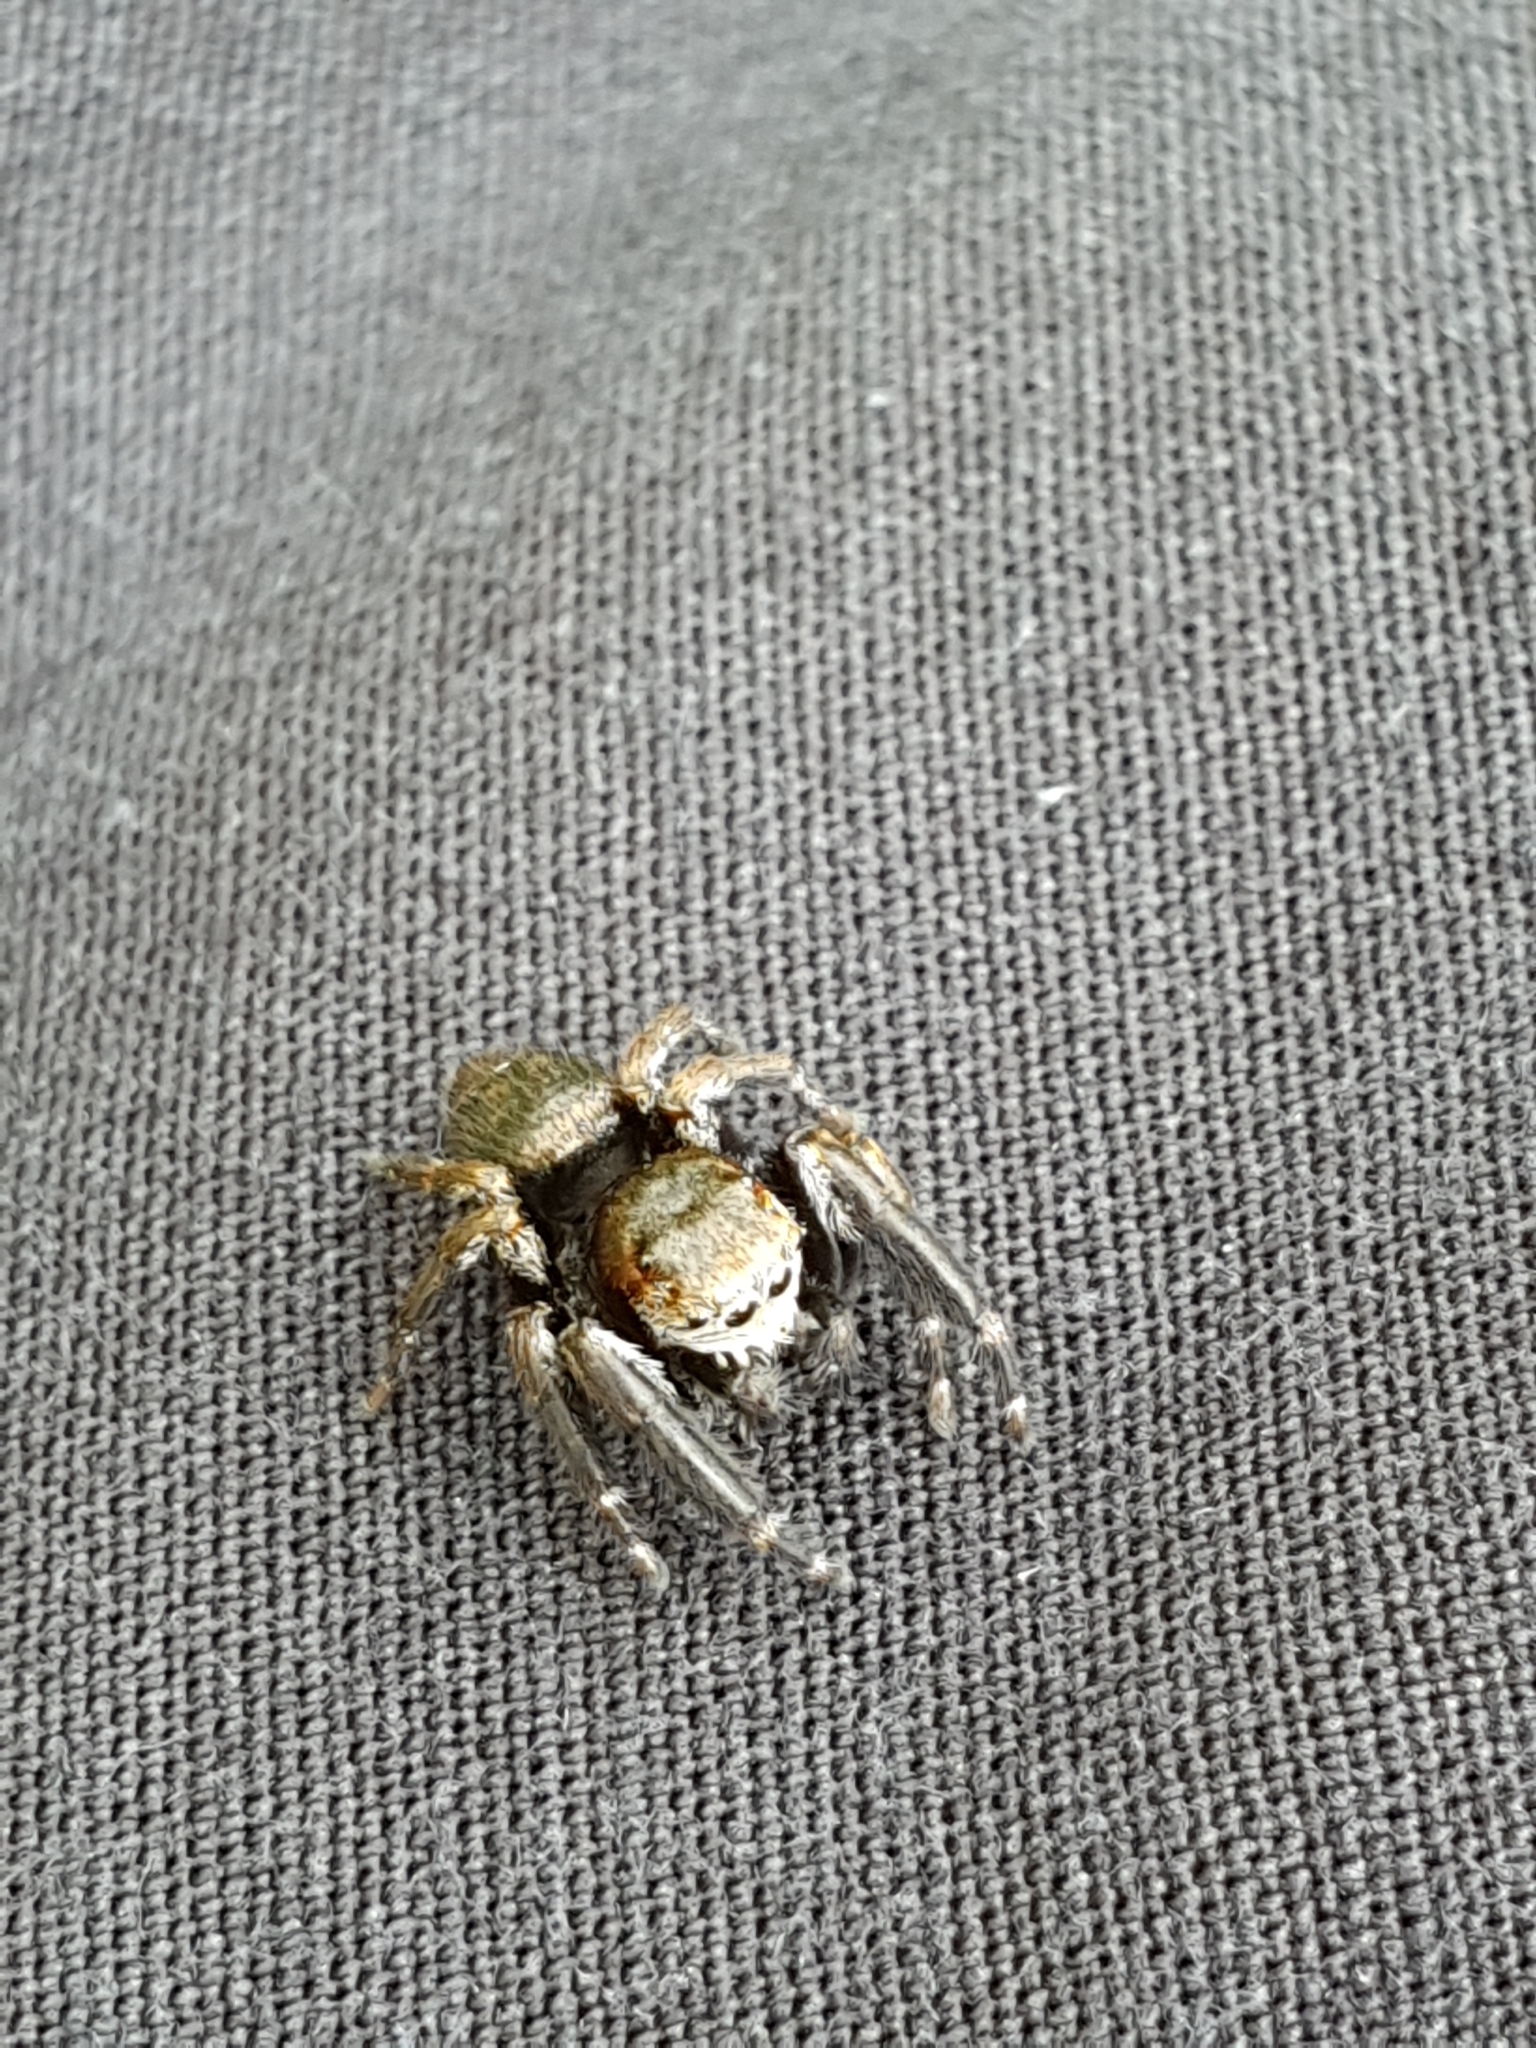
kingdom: Animalia
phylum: Arthropoda
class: Arachnida
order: Araneae
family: Salticidae
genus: Evarcha
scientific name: Evarcha arcuata
